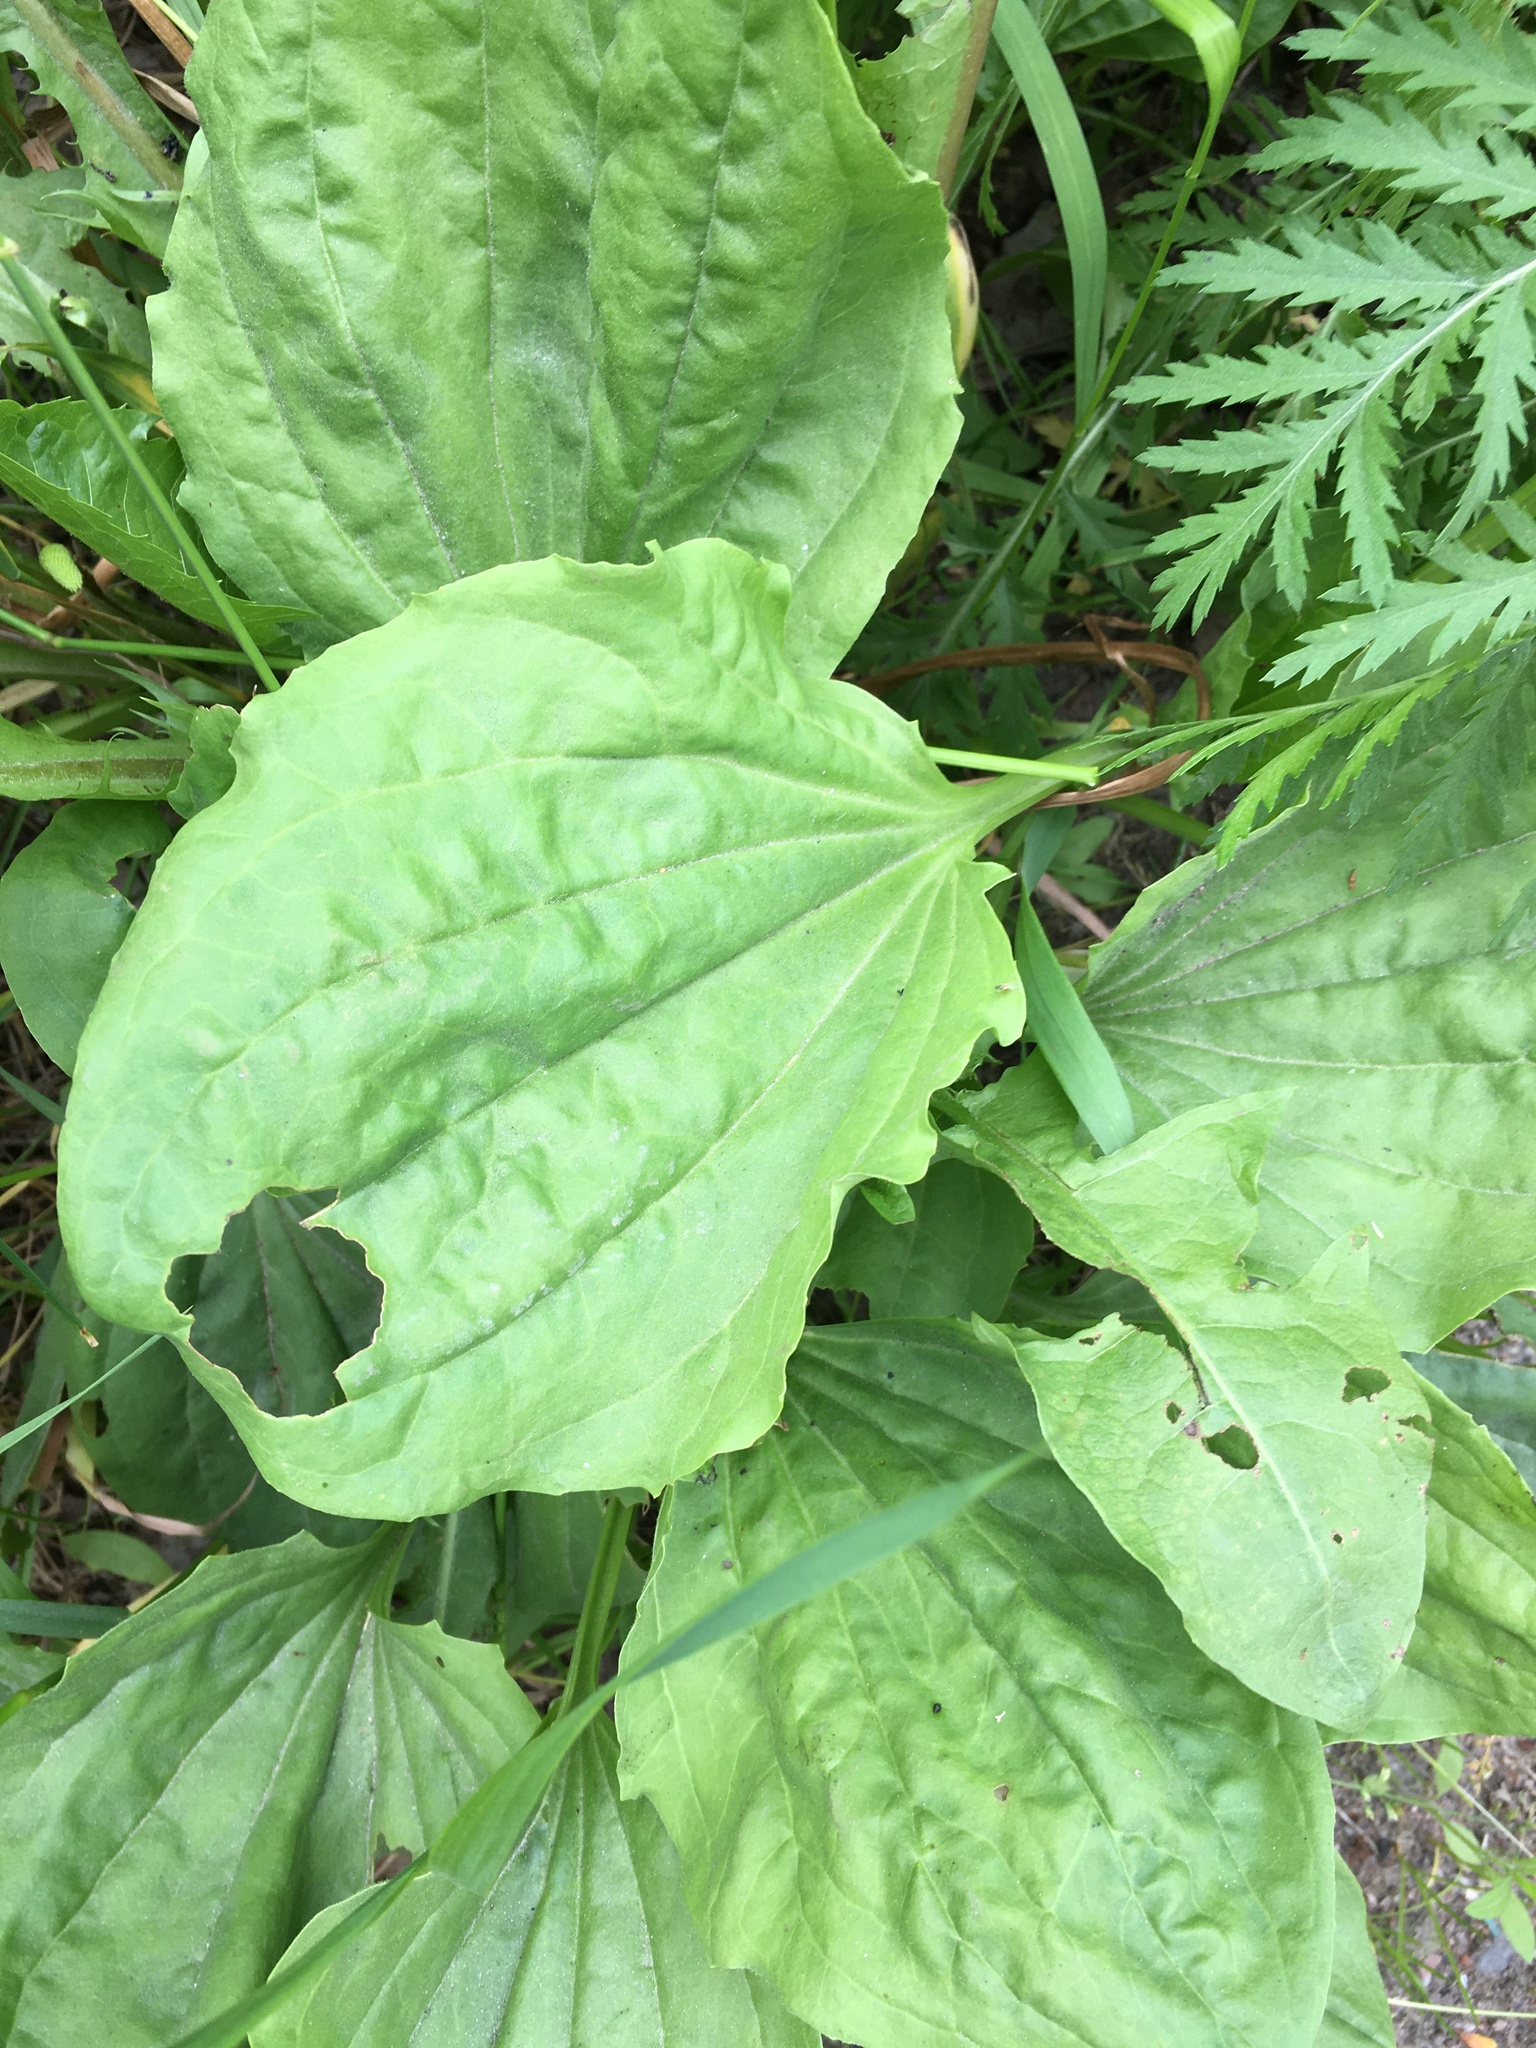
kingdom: Plantae
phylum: Tracheophyta
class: Magnoliopsida
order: Lamiales
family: Plantaginaceae
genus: Plantago
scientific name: Plantago major
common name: Common plantain
